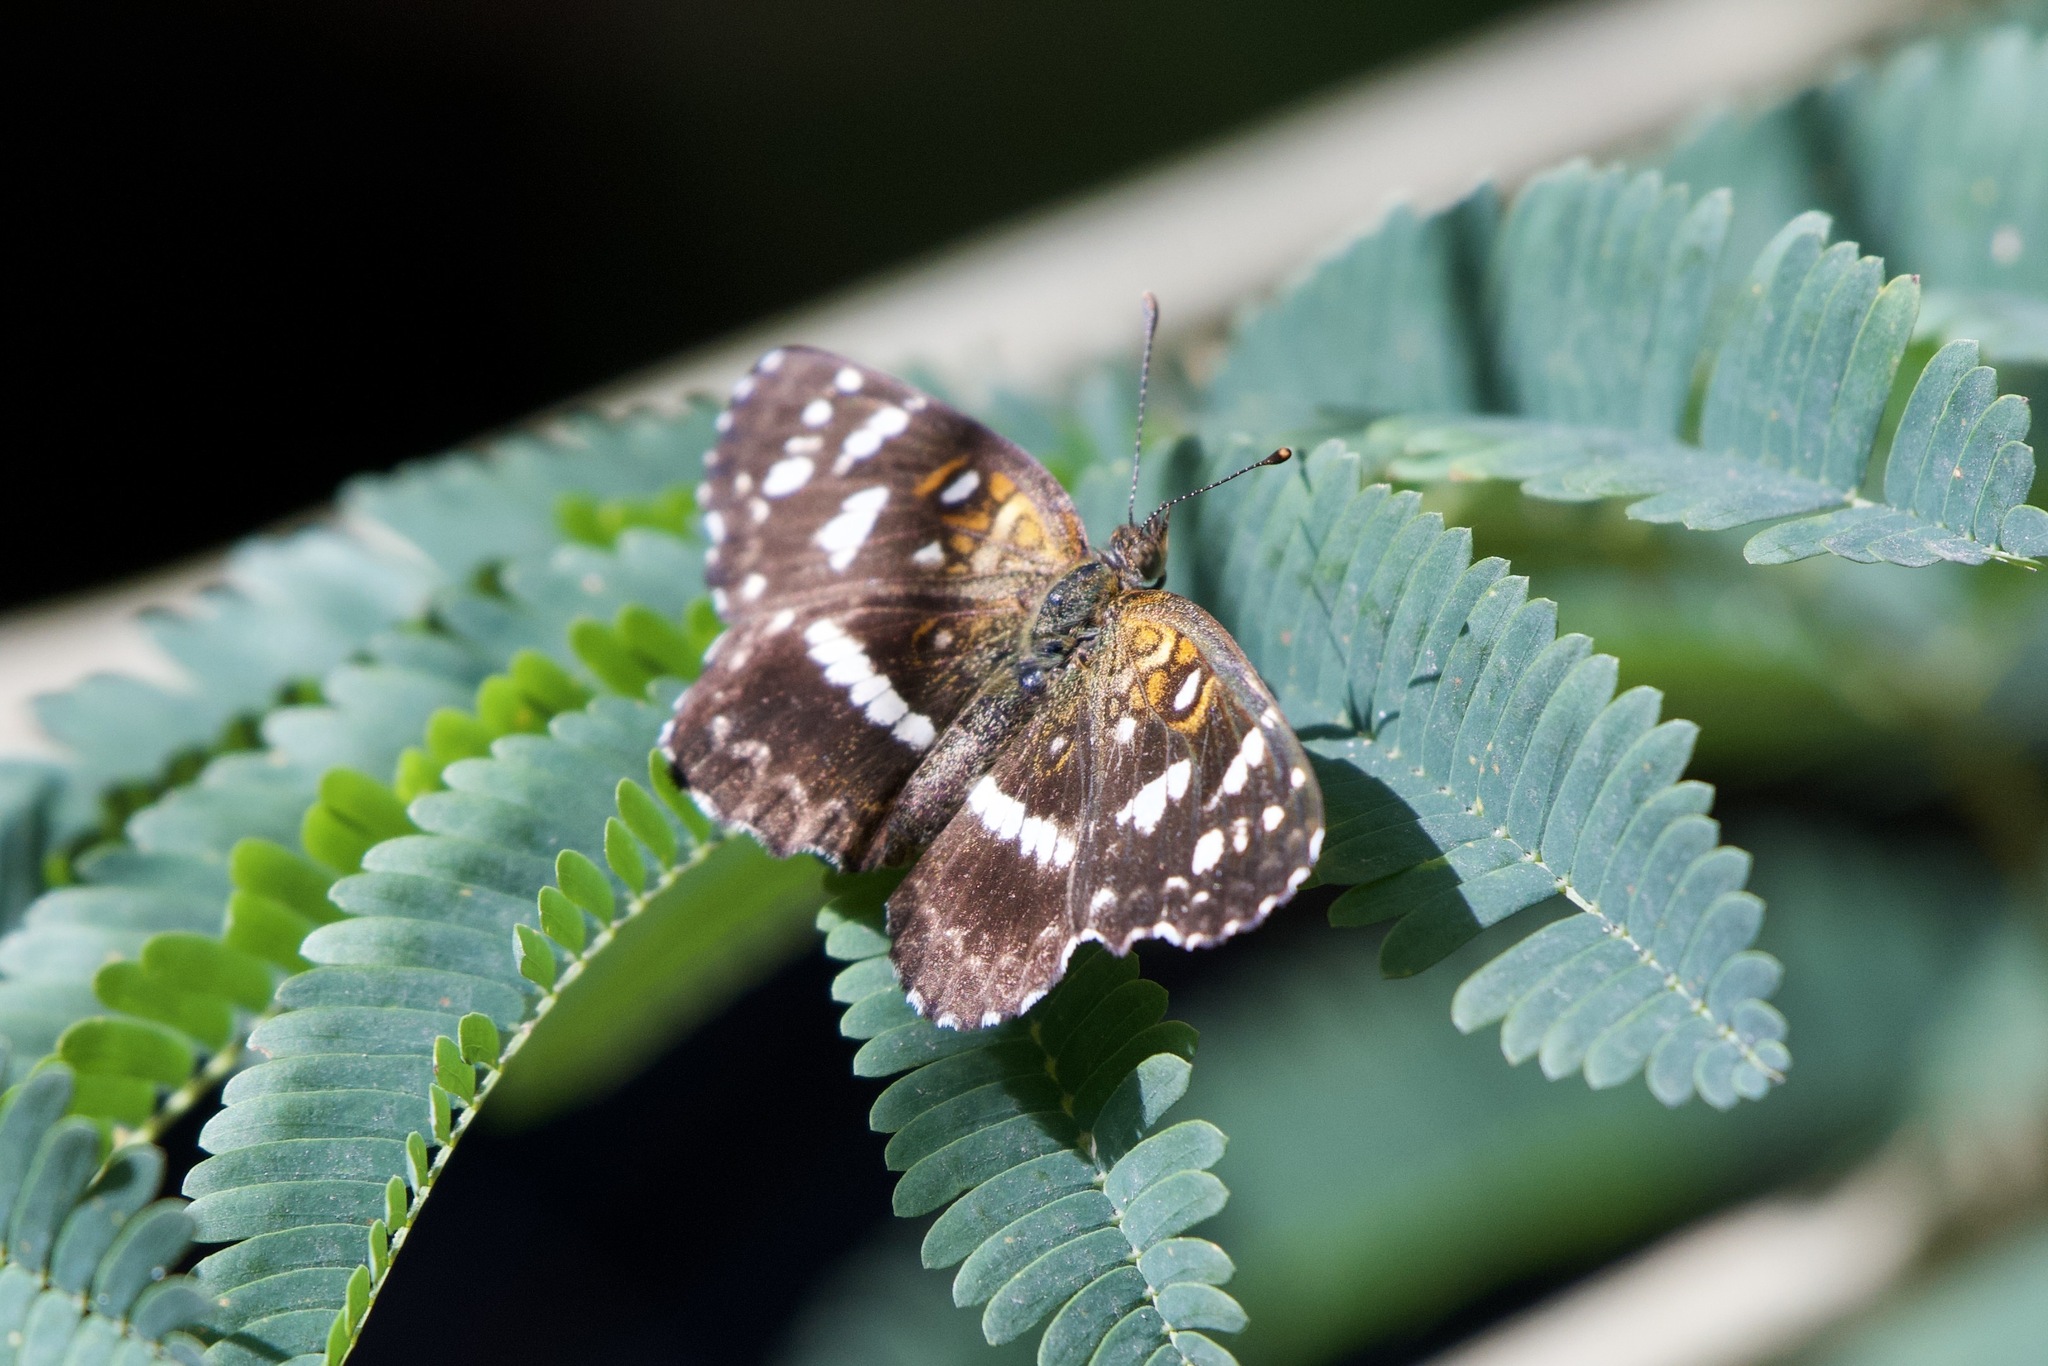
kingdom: Animalia
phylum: Arthropoda
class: Insecta
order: Lepidoptera
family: Nymphalidae
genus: Ortilia
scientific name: Ortilia ithra
